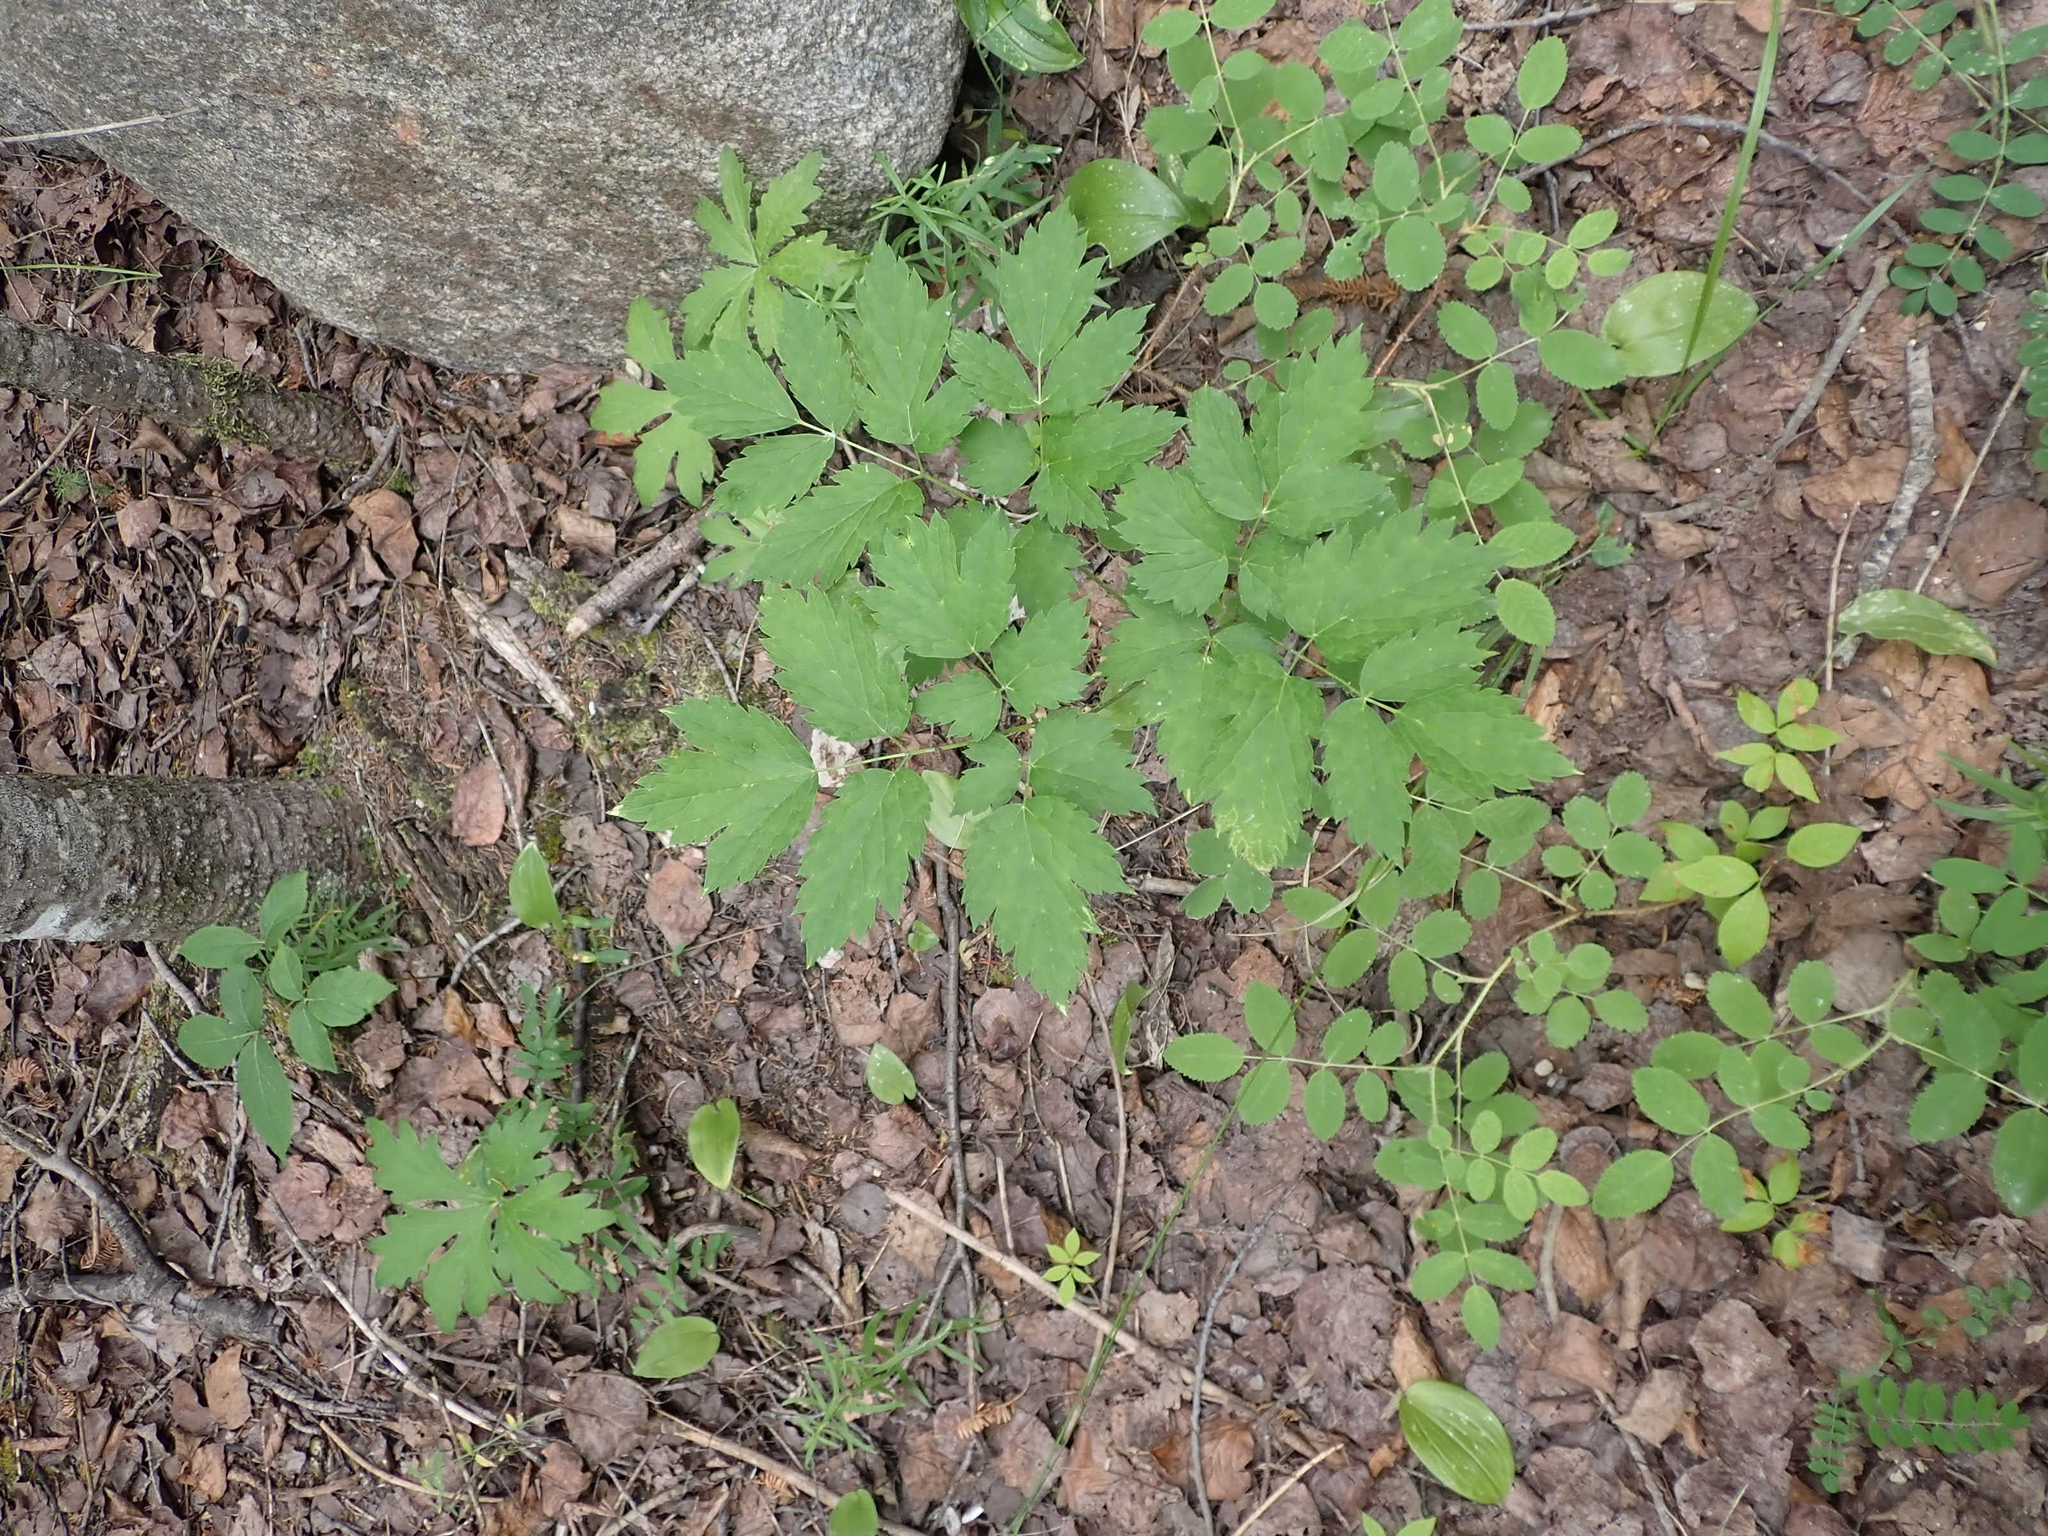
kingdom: Plantae
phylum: Tracheophyta
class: Magnoliopsida
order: Ranunculales
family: Ranunculaceae
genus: Actaea
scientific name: Actaea rubra
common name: Red baneberry
